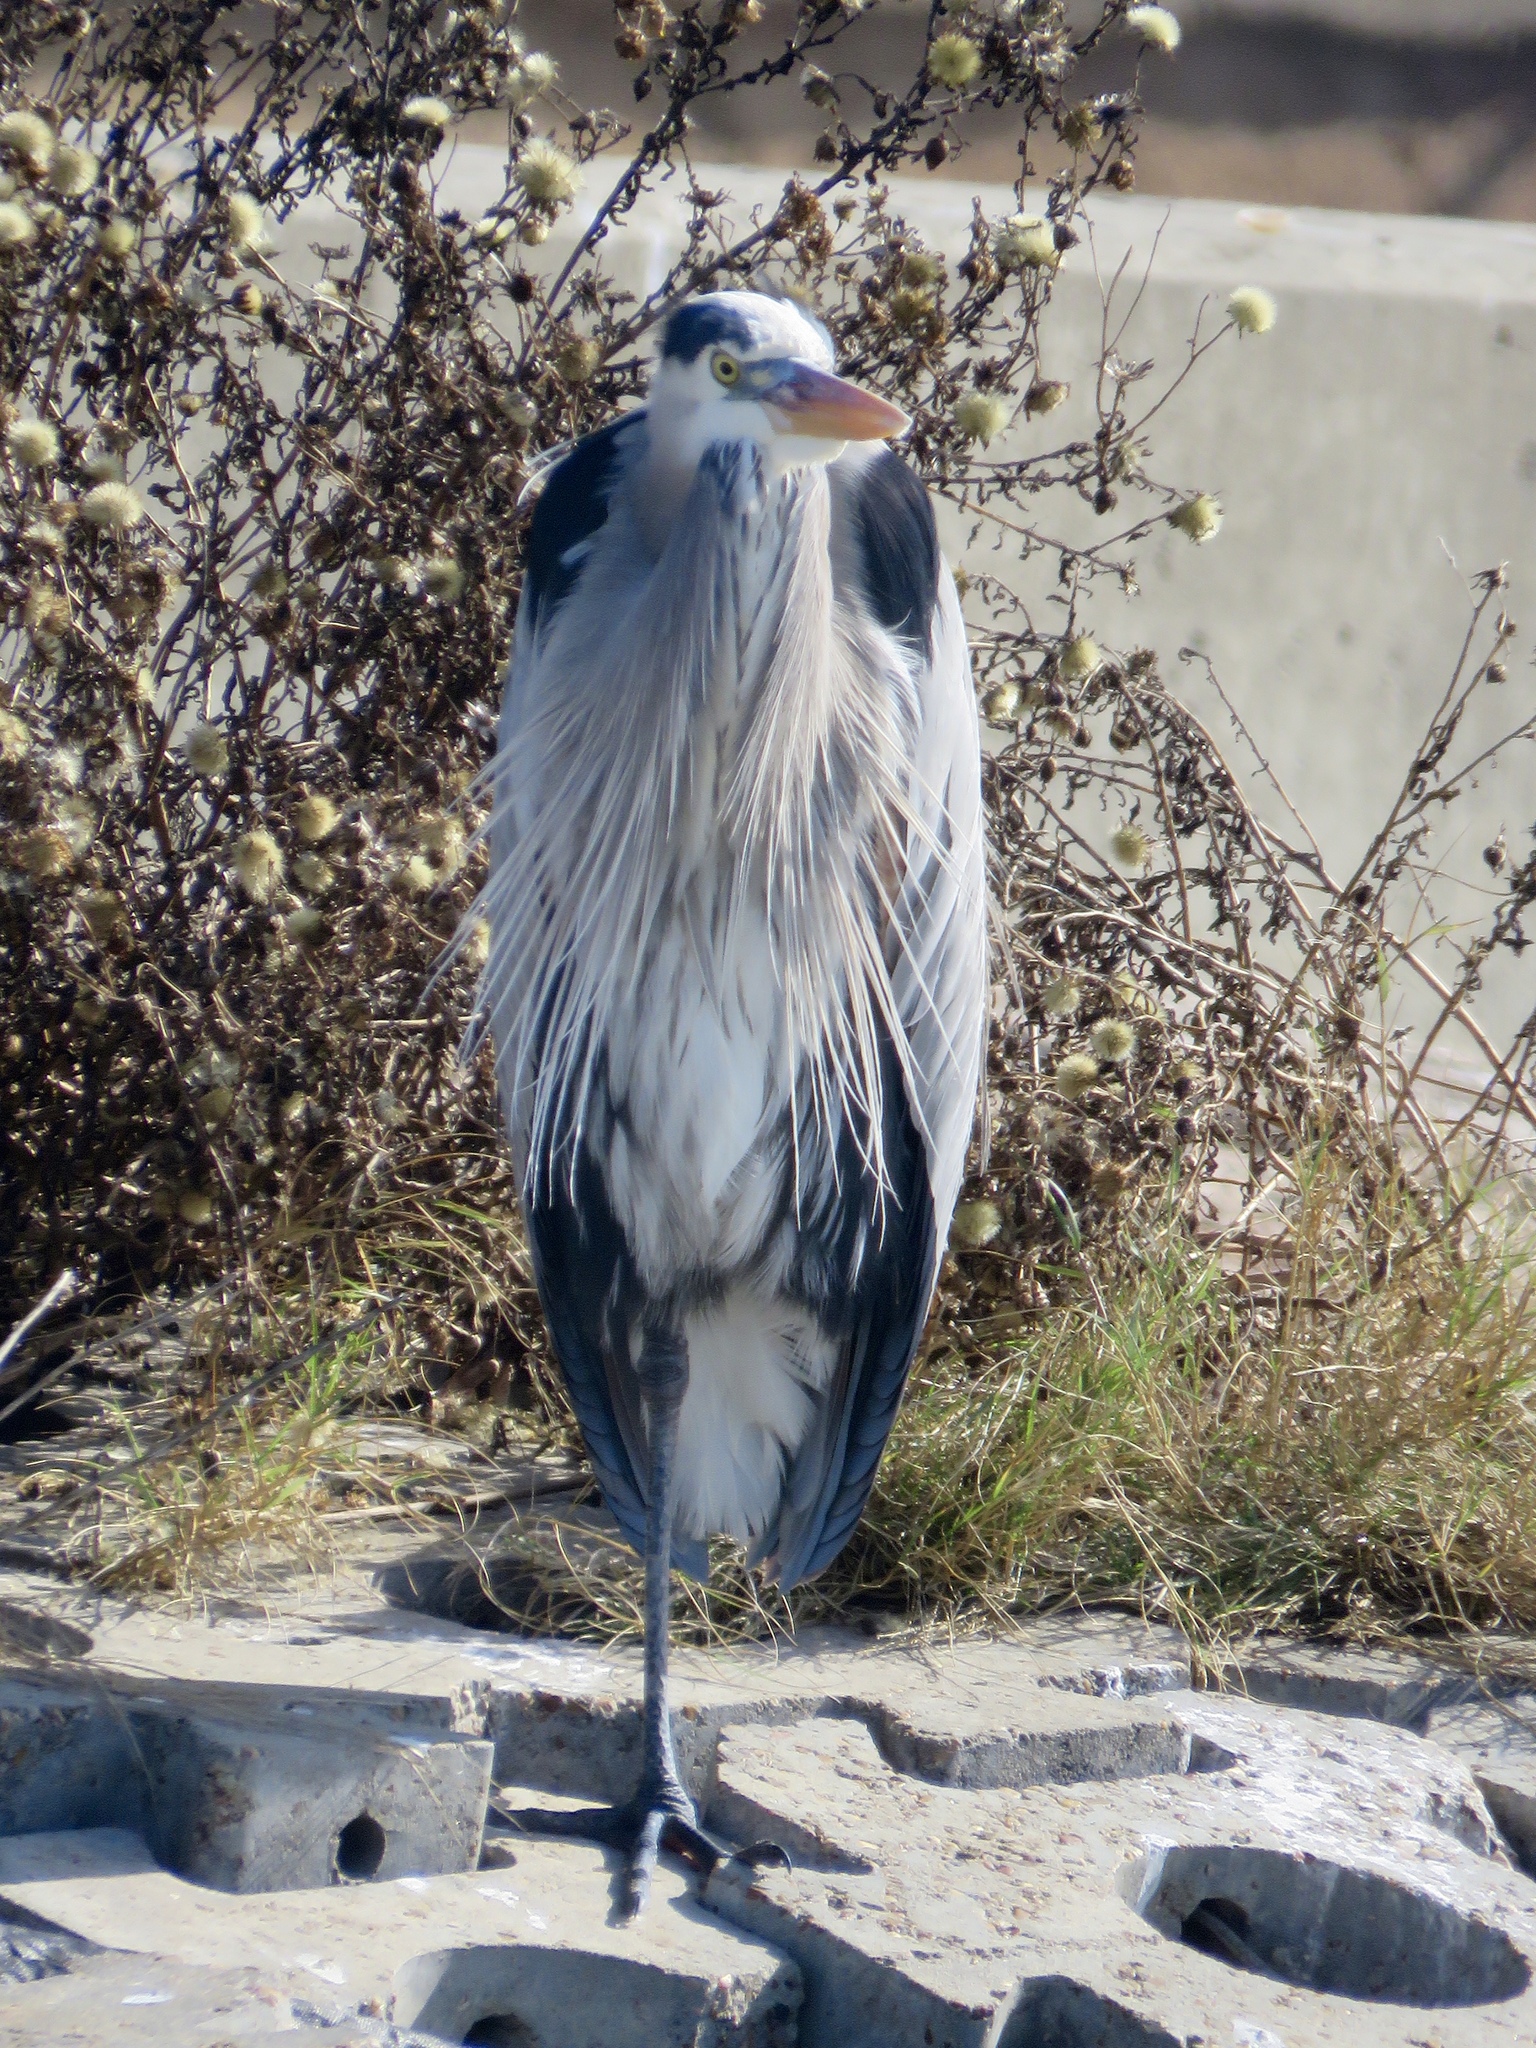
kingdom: Animalia
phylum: Chordata
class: Aves
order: Pelecaniformes
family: Ardeidae
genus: Ardea
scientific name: Ardea herodias
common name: Great blue heron
